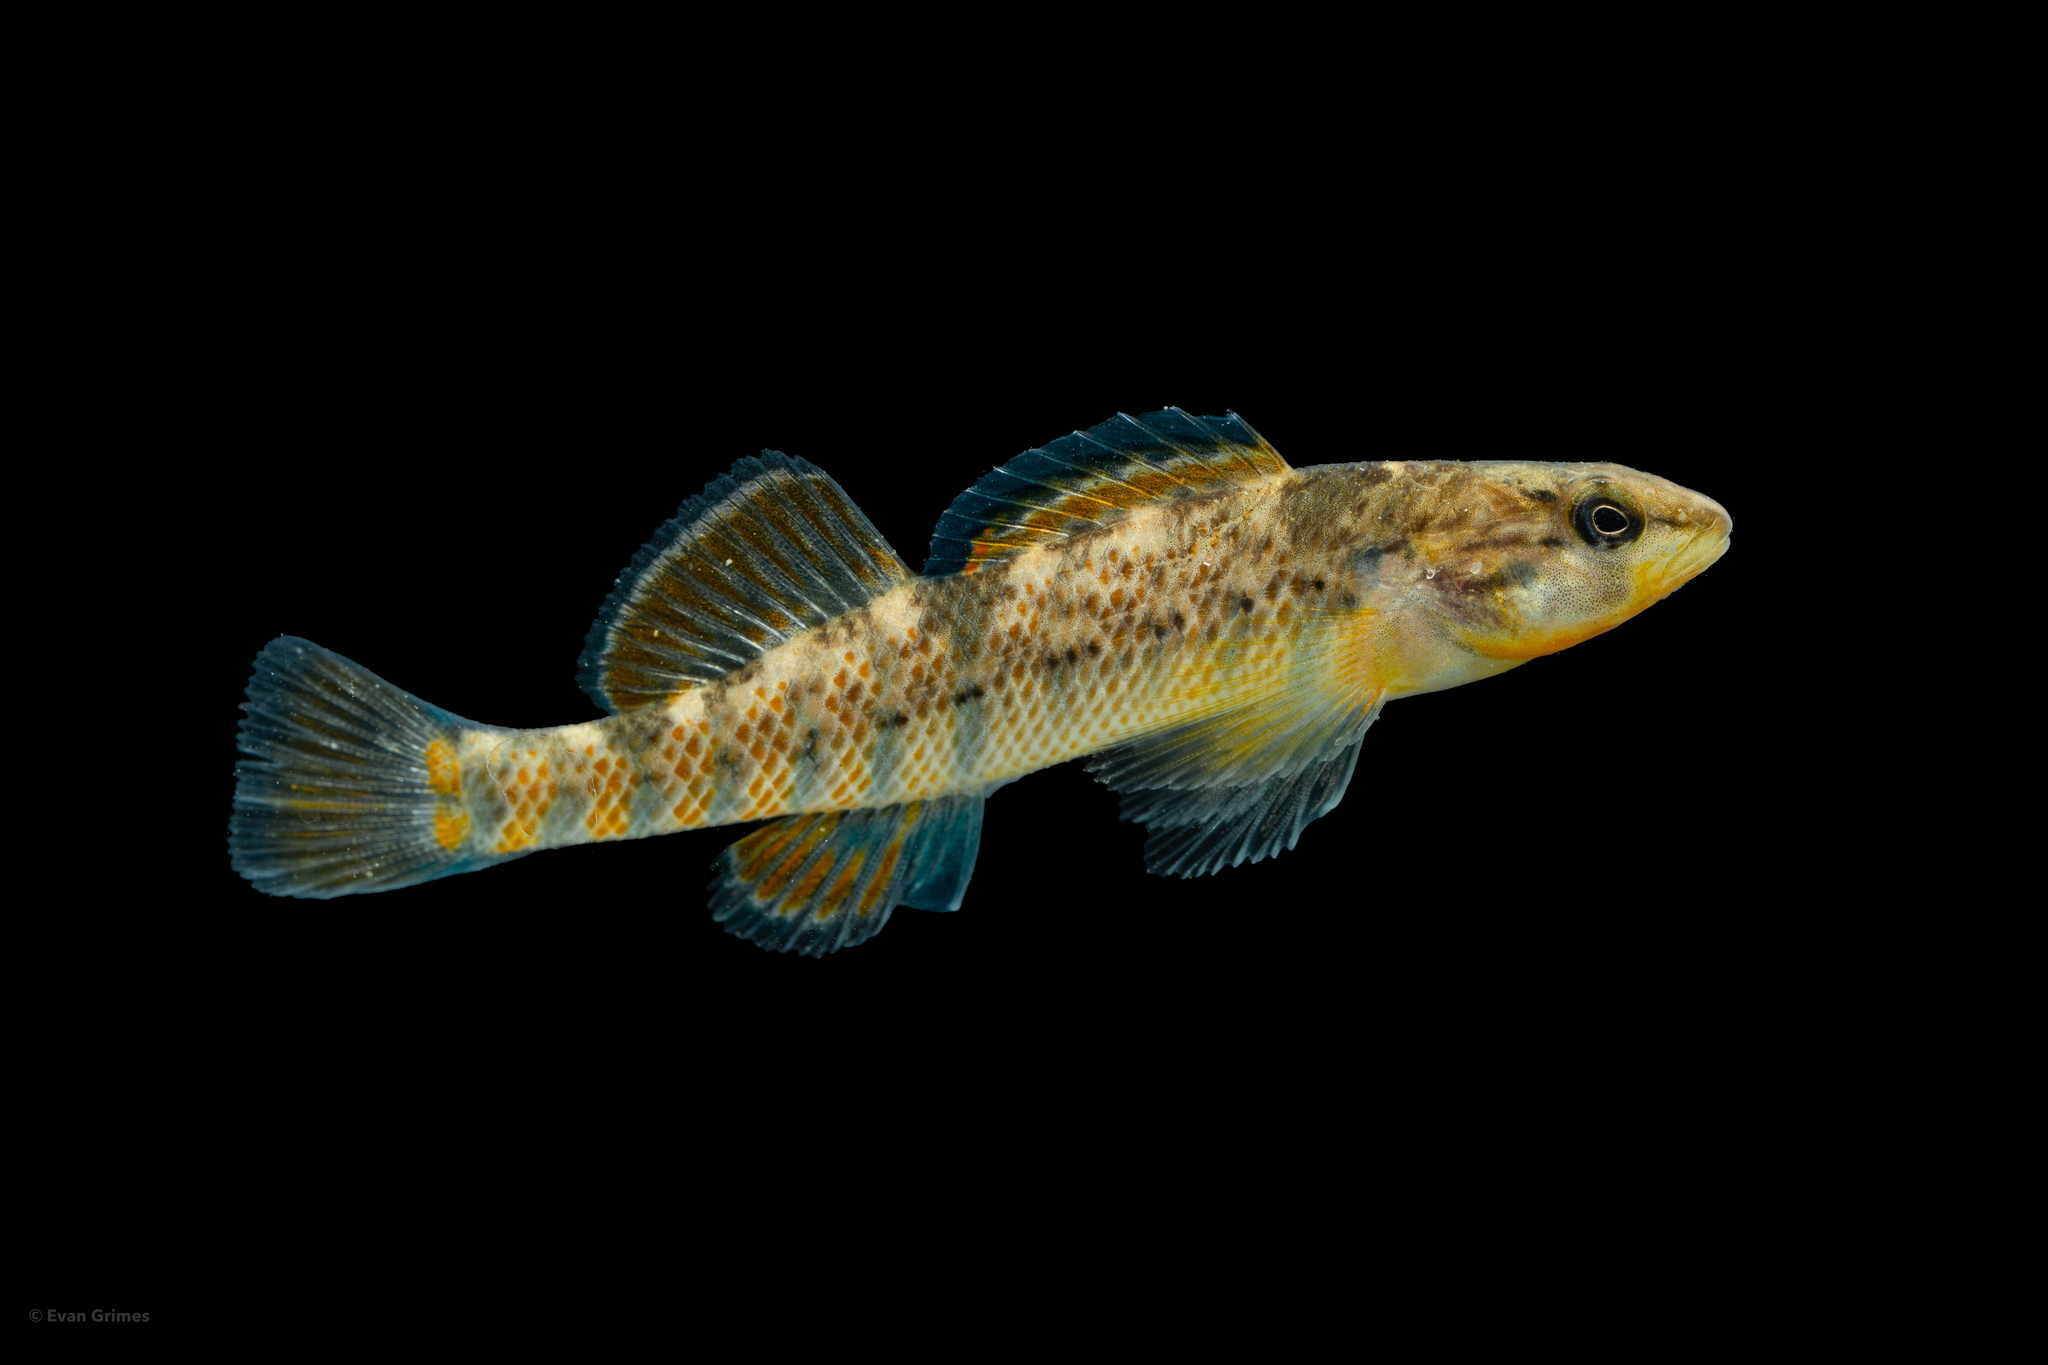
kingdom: Animalia
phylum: Chordata
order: Perciformes
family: Percidae
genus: Etheostoma
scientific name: Etheostoma caeruleum
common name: Rainbow darter
